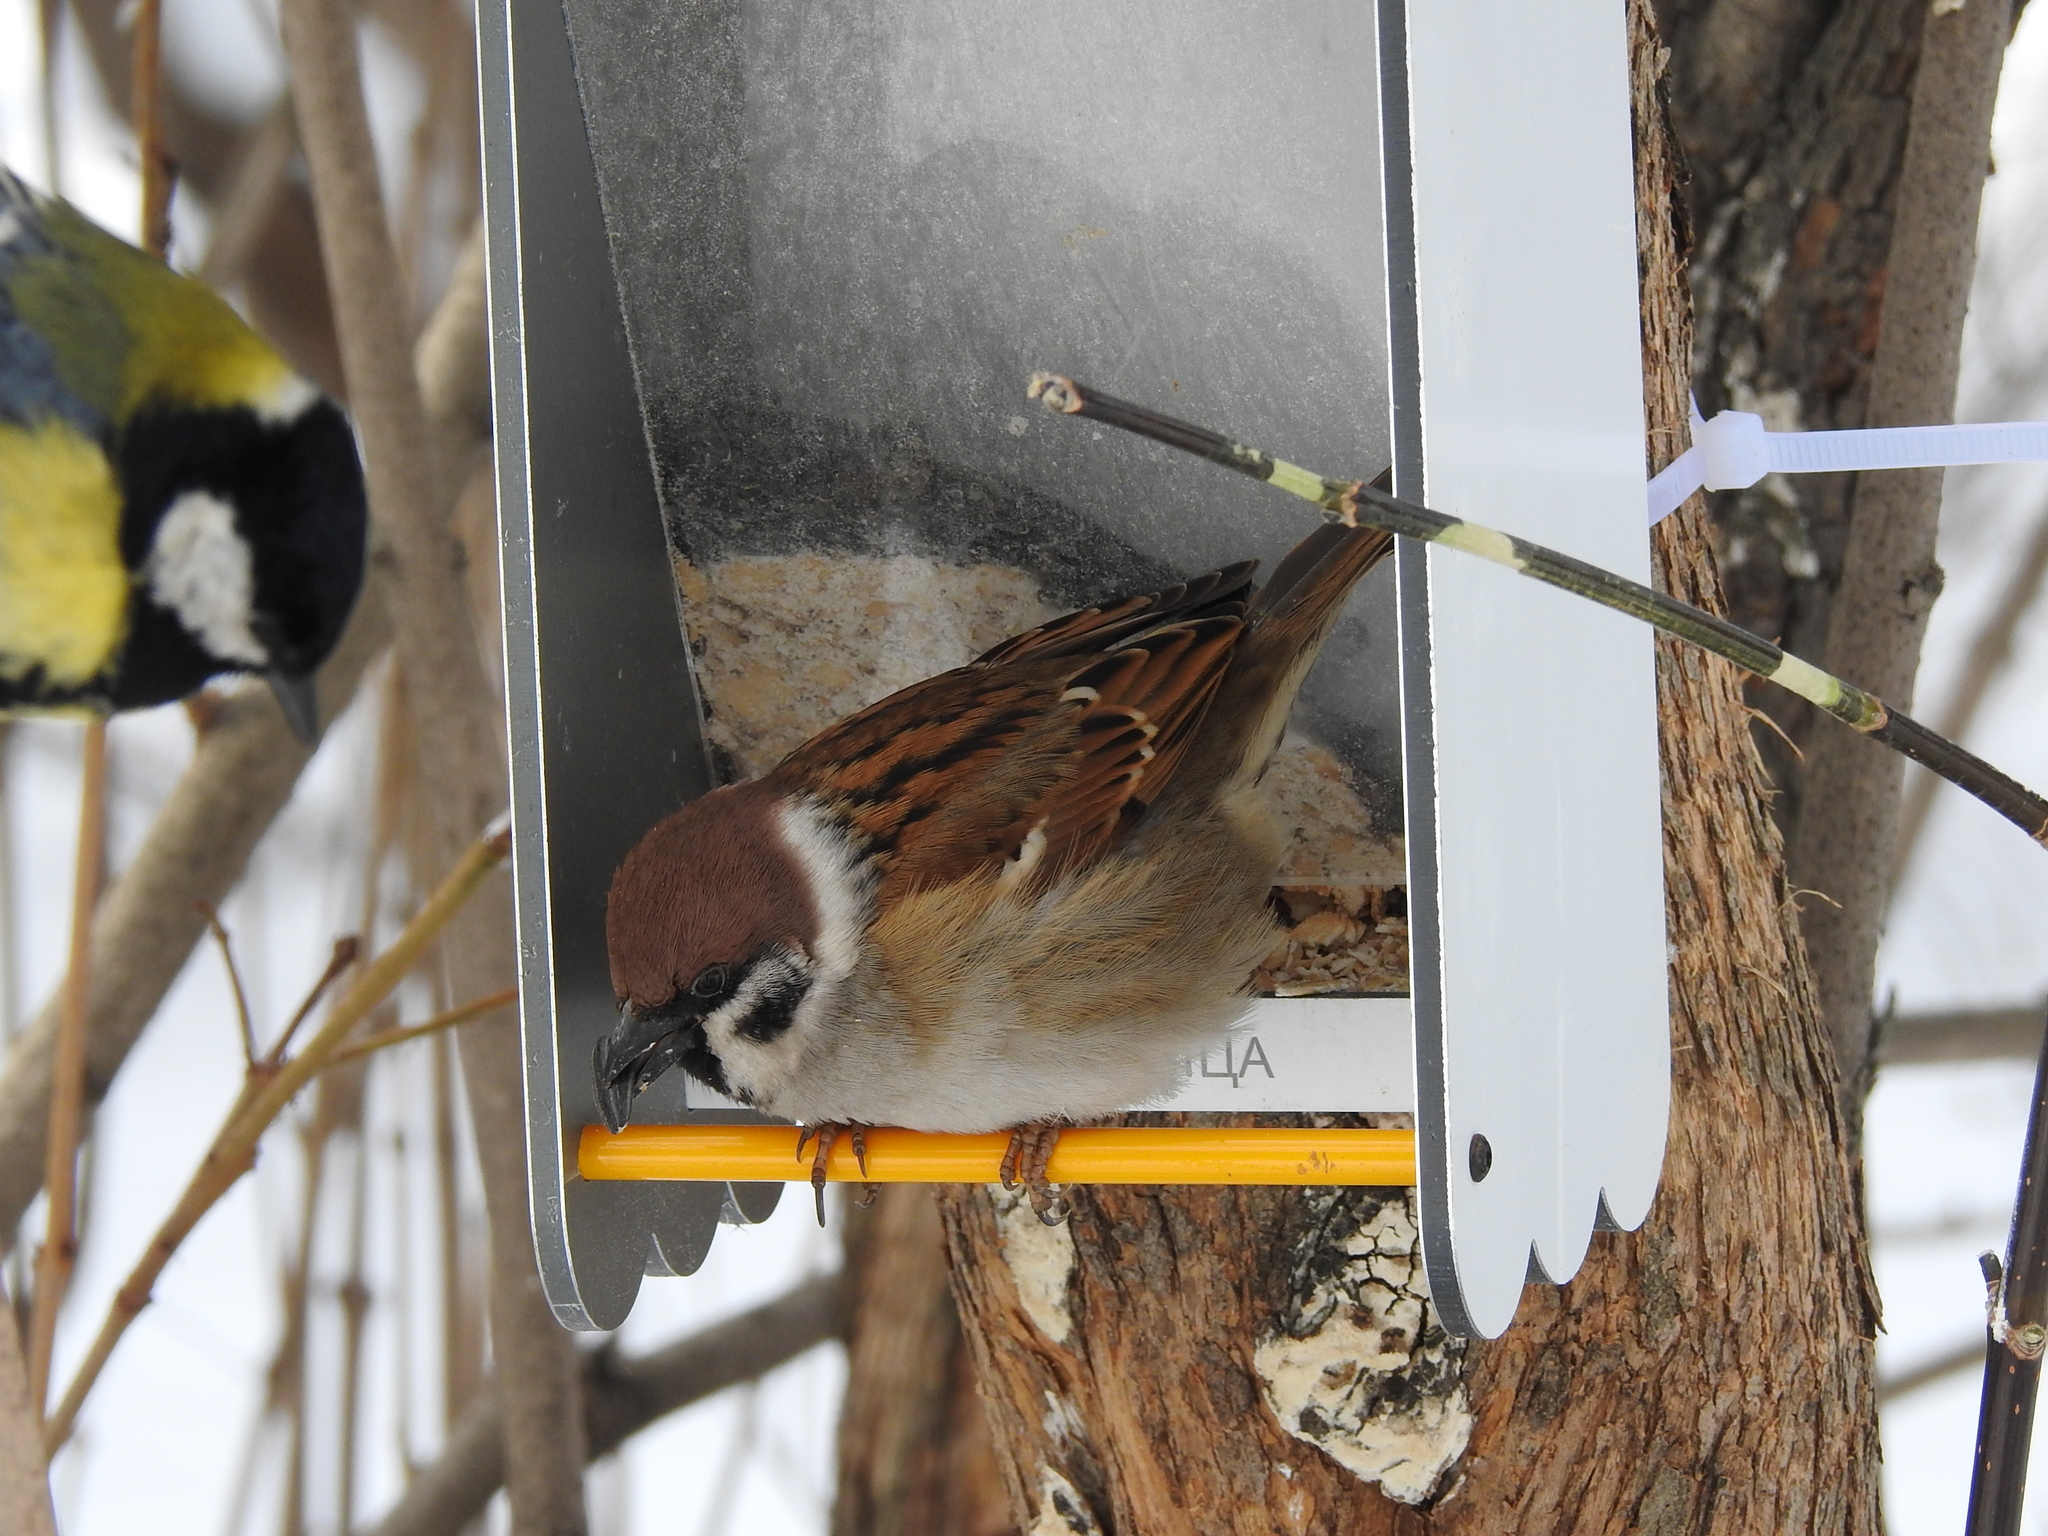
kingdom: Animalia
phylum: Chordata
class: Aves
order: Passeriformes
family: Passeridae
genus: Passer
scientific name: Passer montanus
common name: Eurasian tree sparrow
